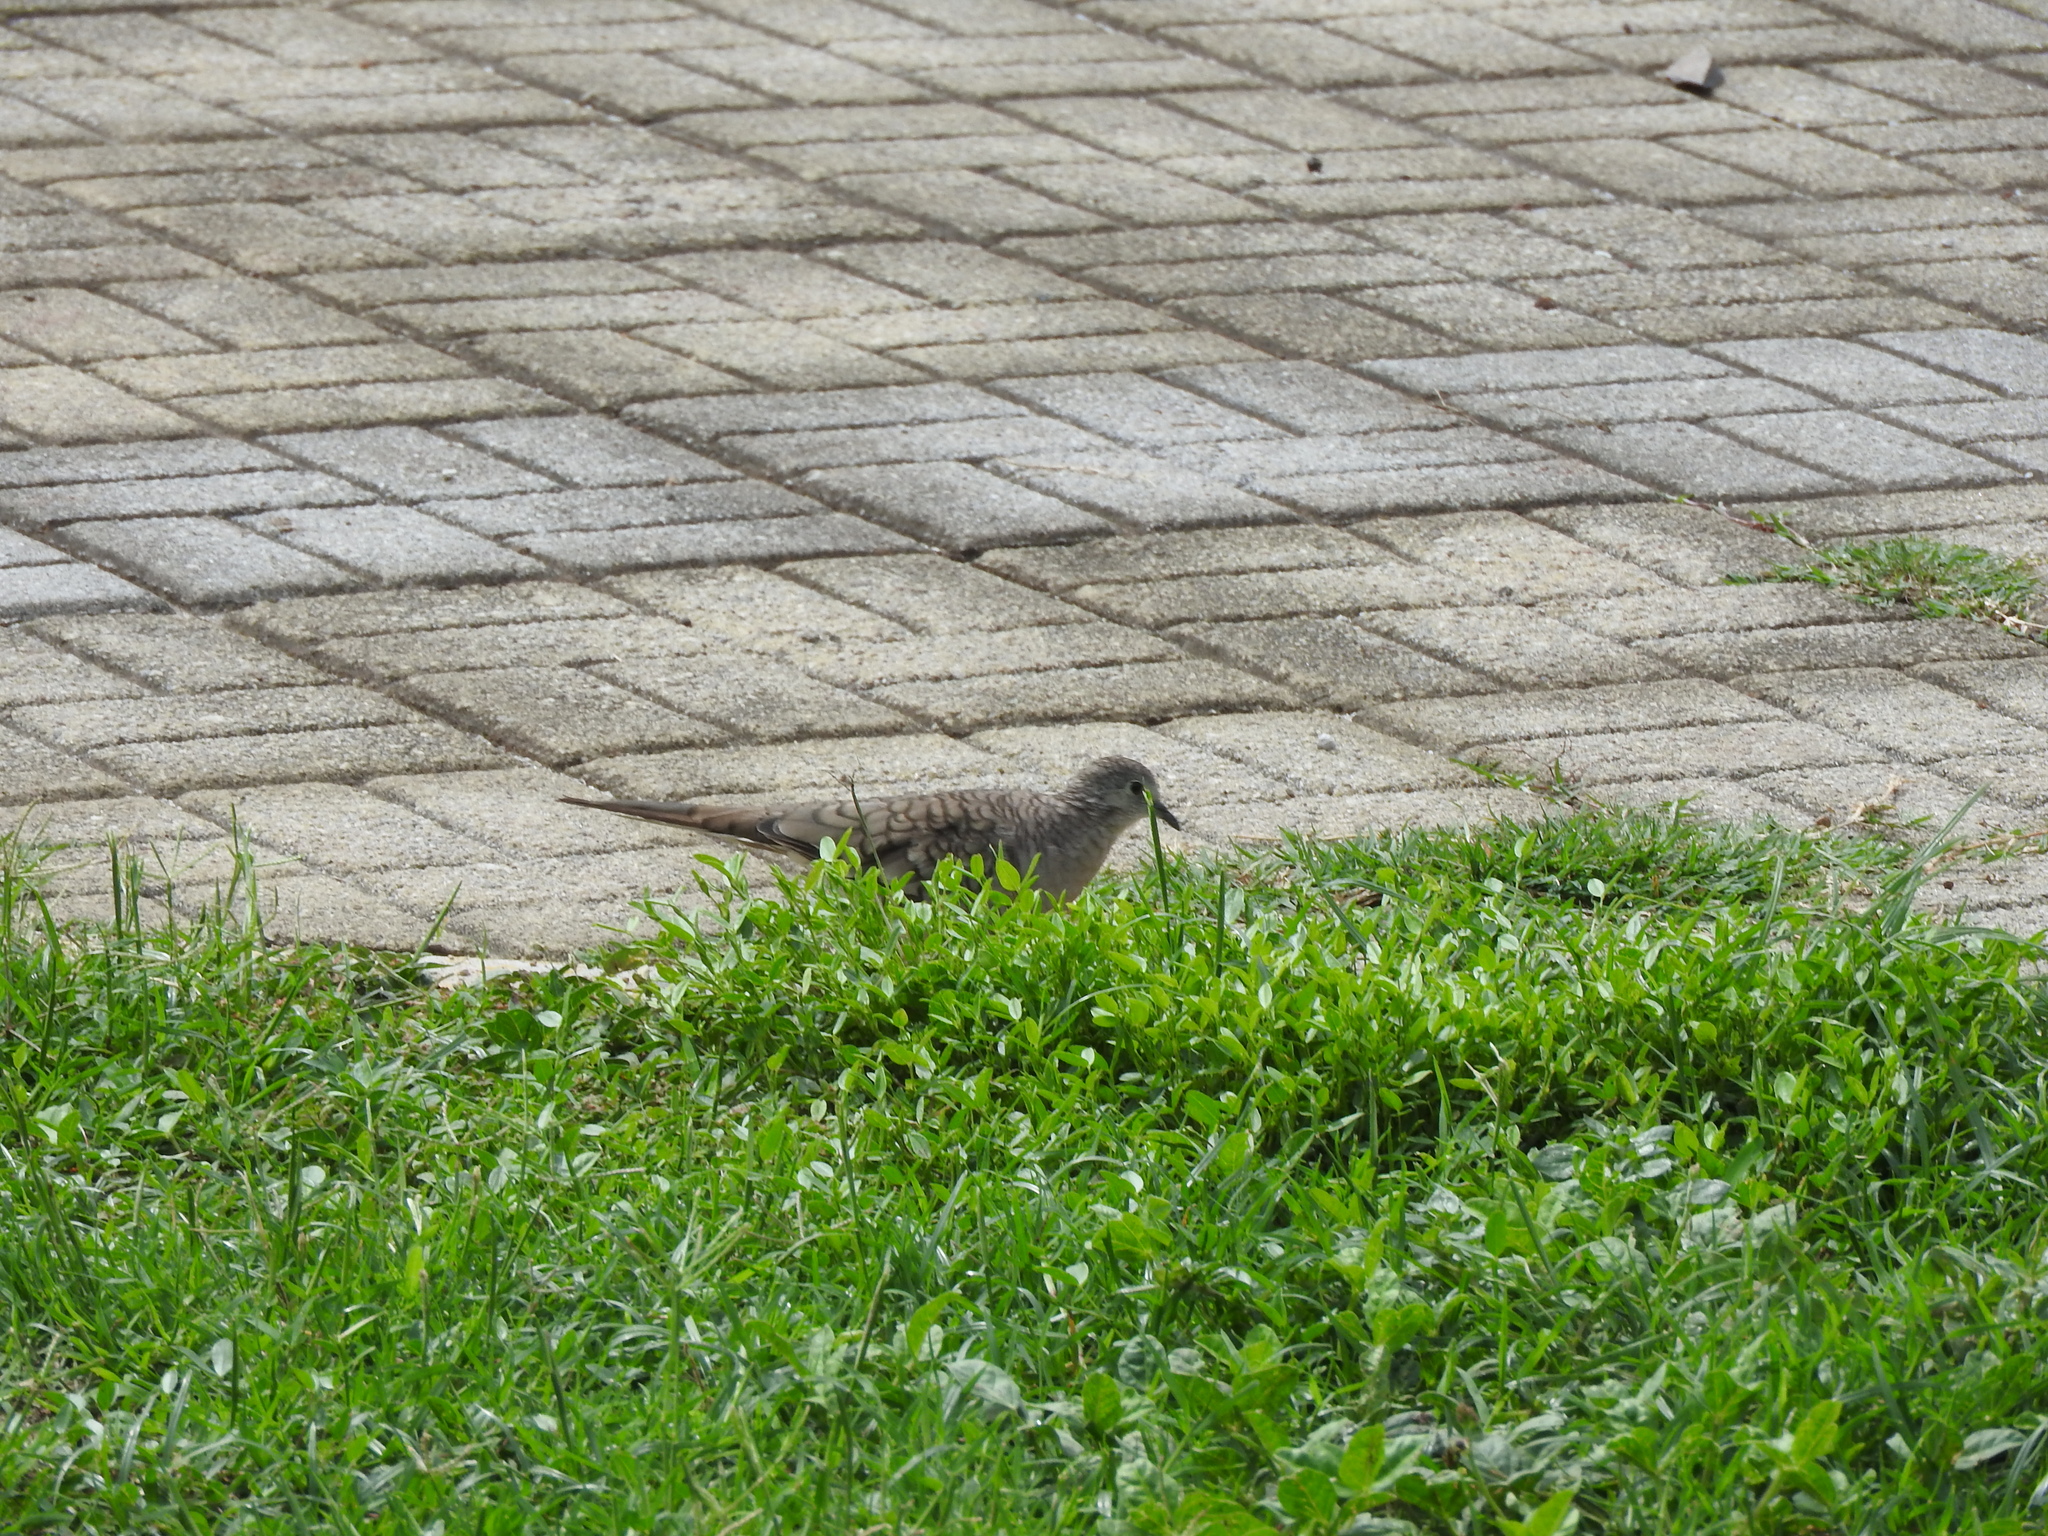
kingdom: Animalia
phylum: Chordata
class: Aves
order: Columbiformes
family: Columbidae
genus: Columbina
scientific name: Columbina inca
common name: Inca dove
